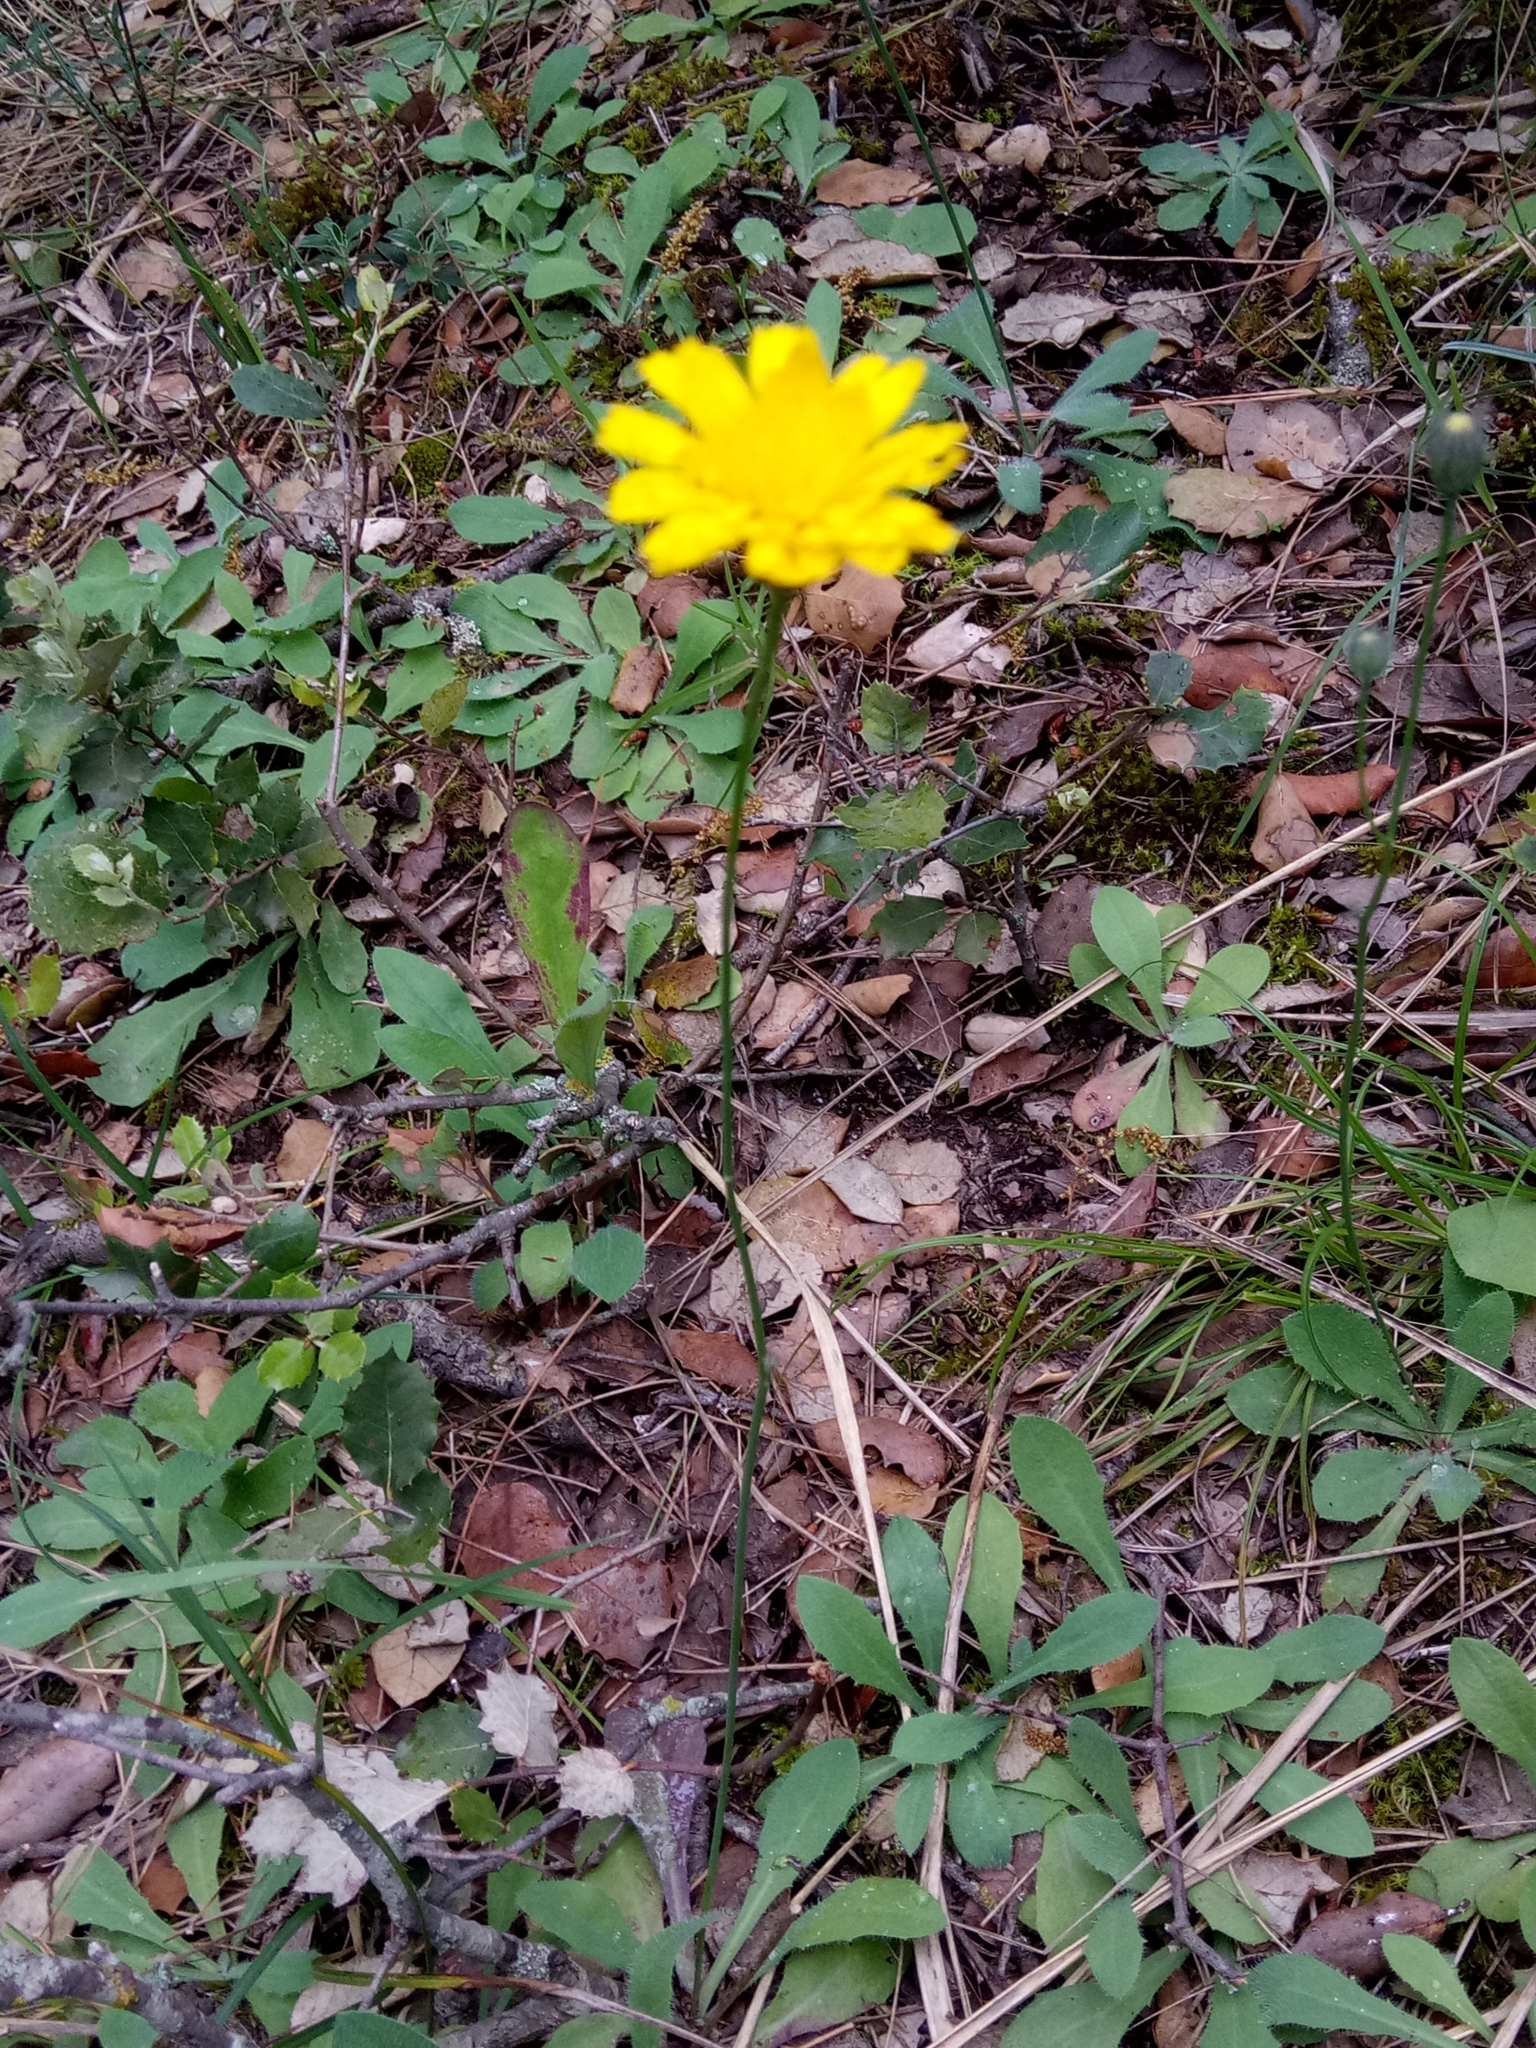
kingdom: Plantae
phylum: Tracheophyta
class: Magnoliopsida
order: Asterales
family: Asteraceae
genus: Achyrophorus
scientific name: Achyrophorus laevigatus
